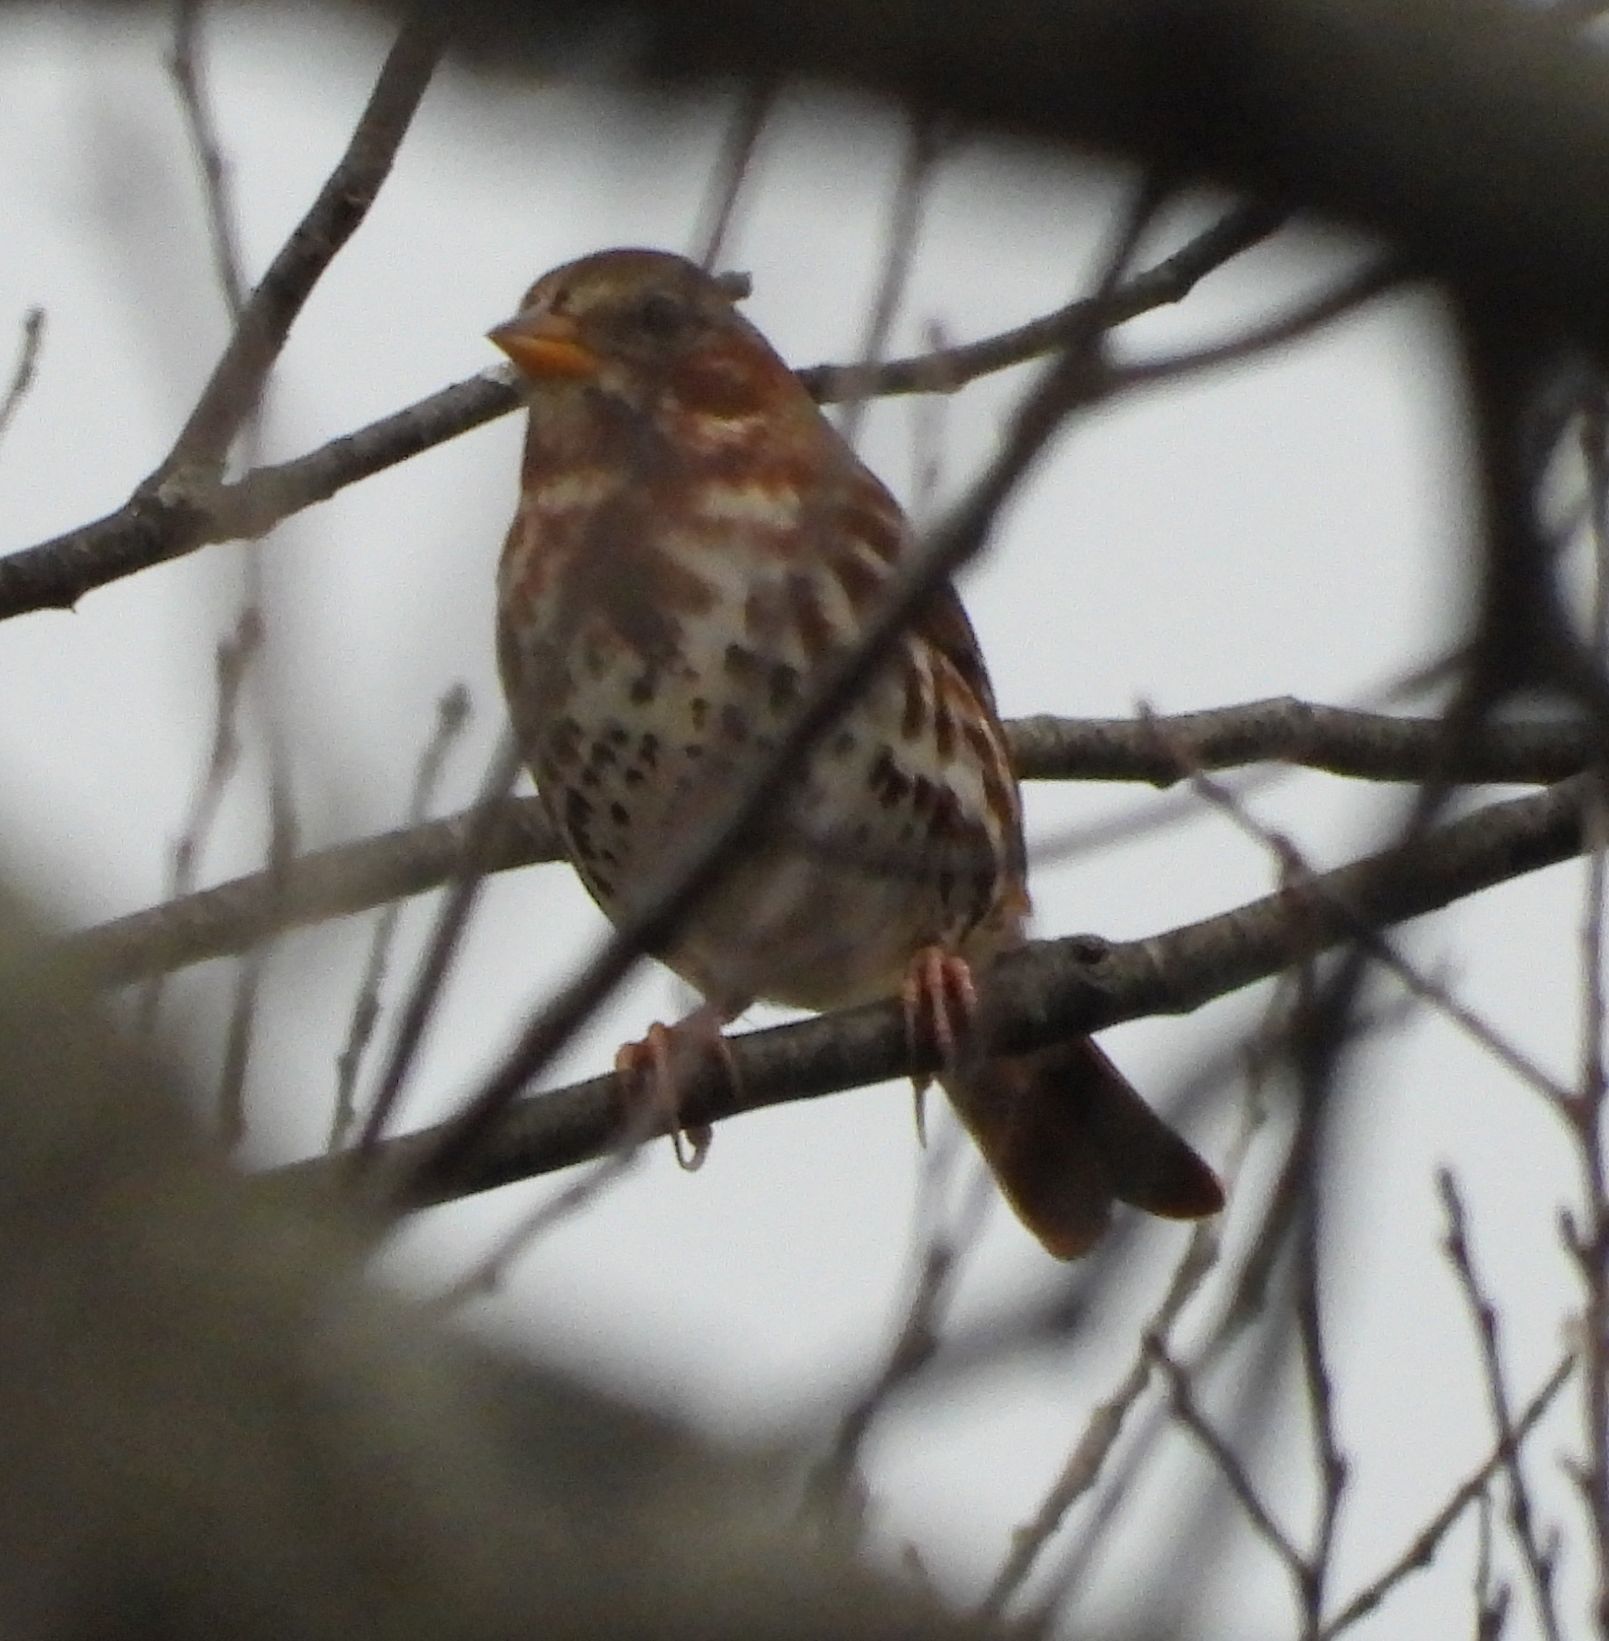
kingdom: Animalia
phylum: Chordata
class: Aves
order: Passeriformes
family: Passerellidae
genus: Passerella
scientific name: Passerella iliaca
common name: Fox sparrow
